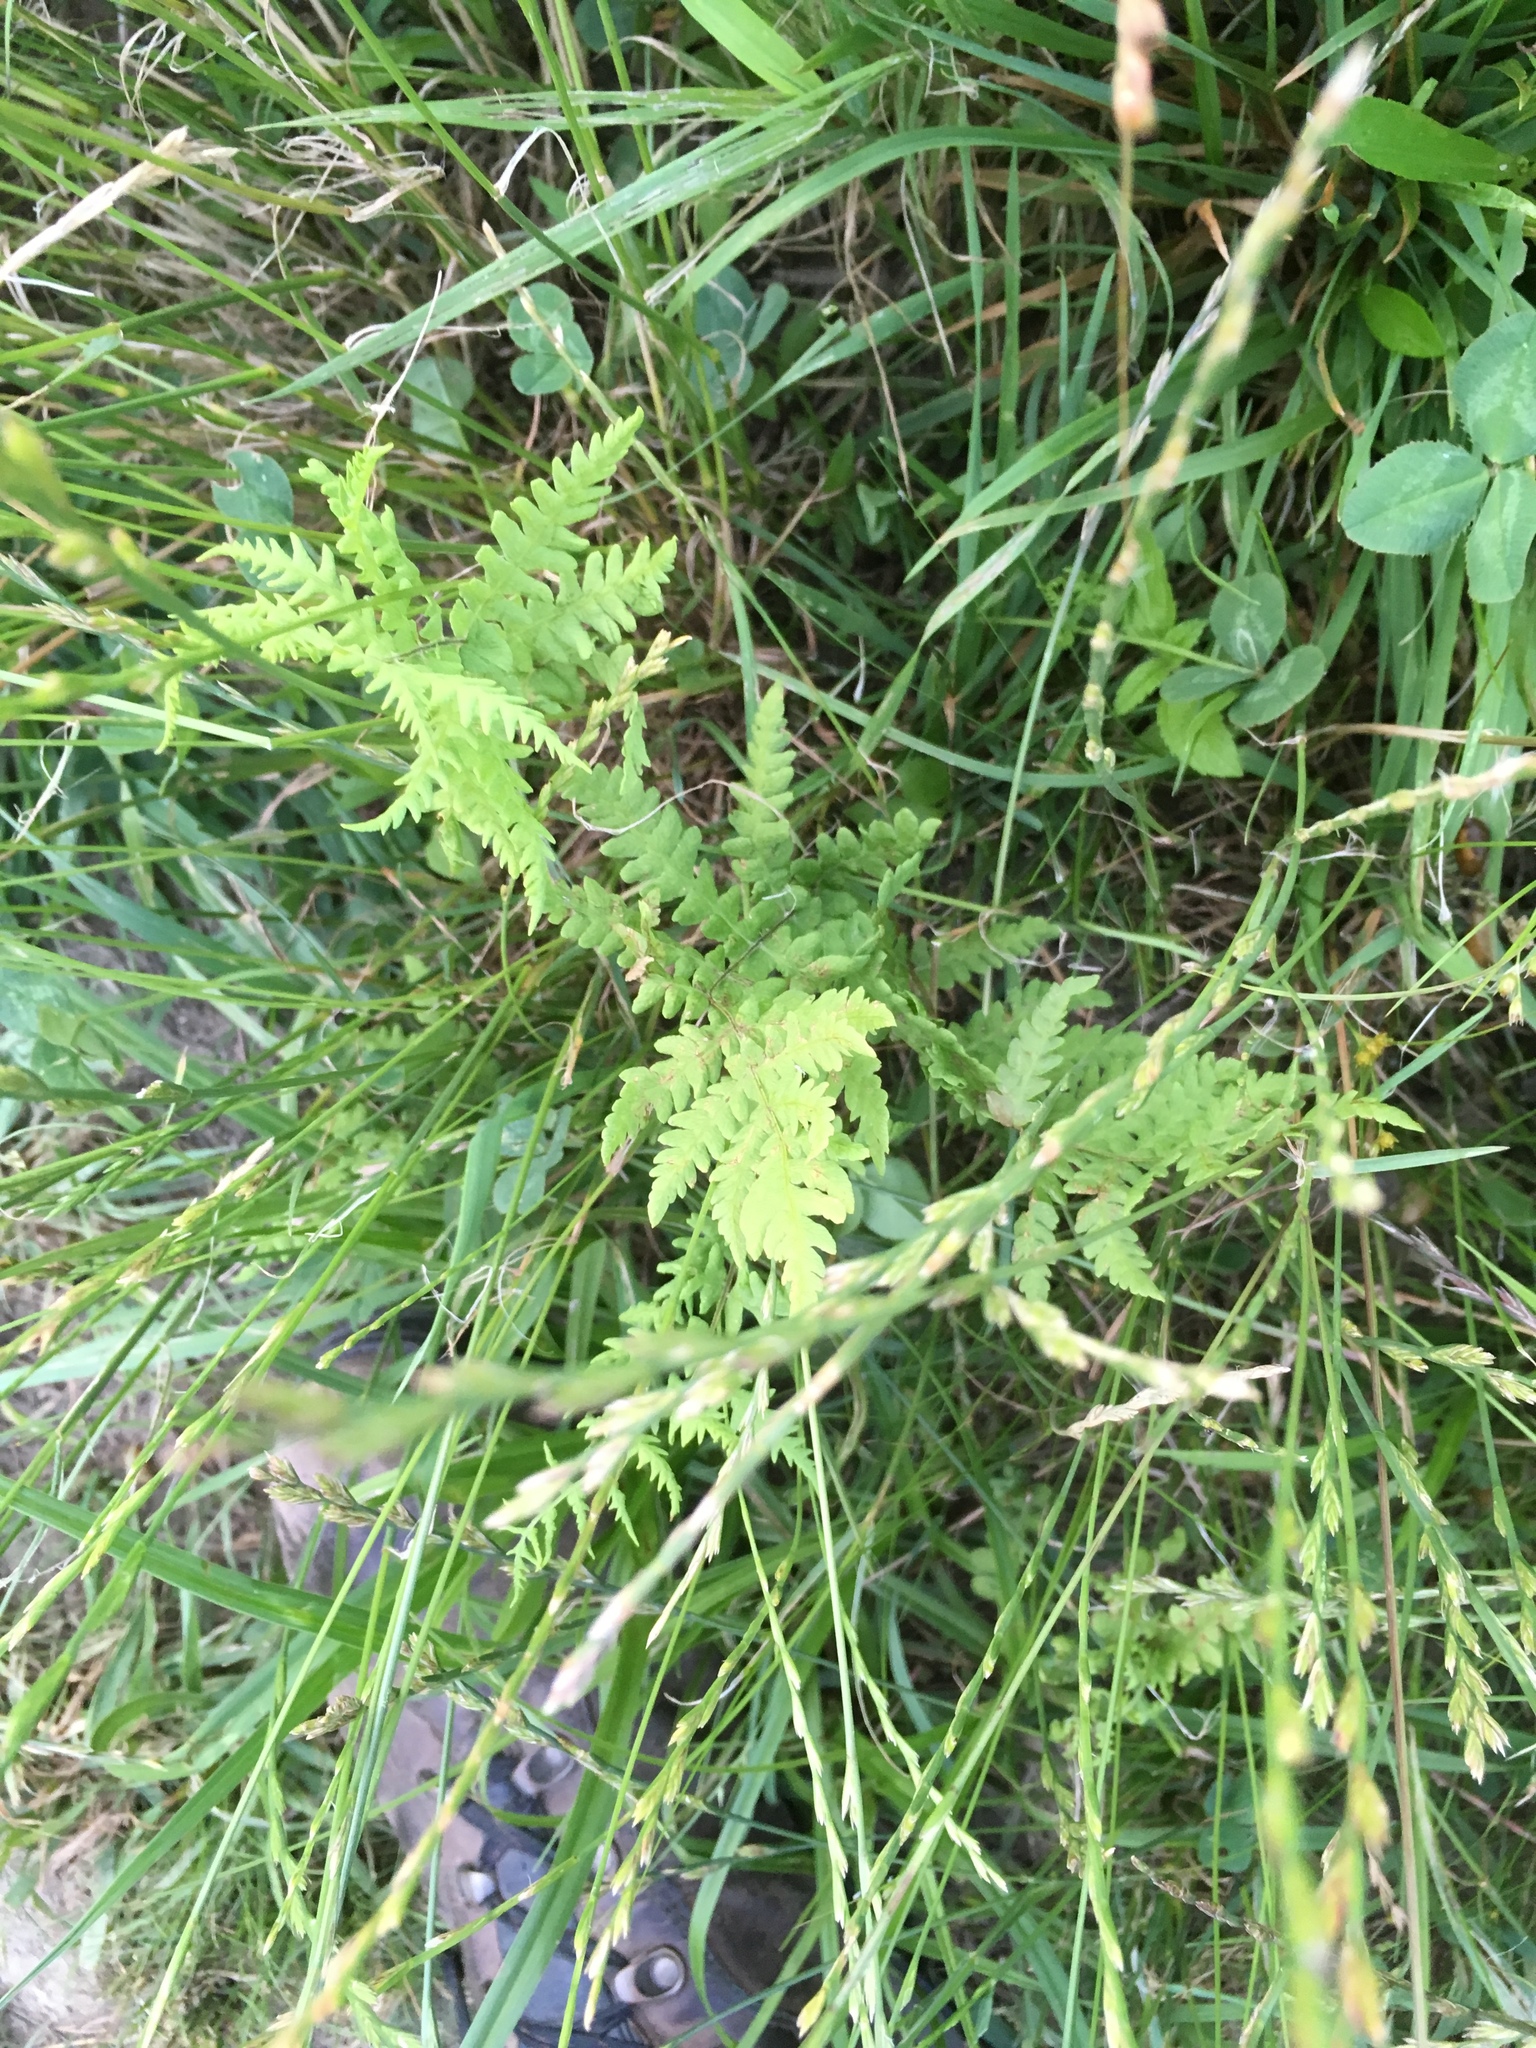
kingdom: Plantae
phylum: Tracheophyta
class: Polypodiopsida
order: Polypodiales
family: Thelypteridaceae
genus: Thelypteris
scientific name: Thelypteris palustris
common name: Marsh fern
